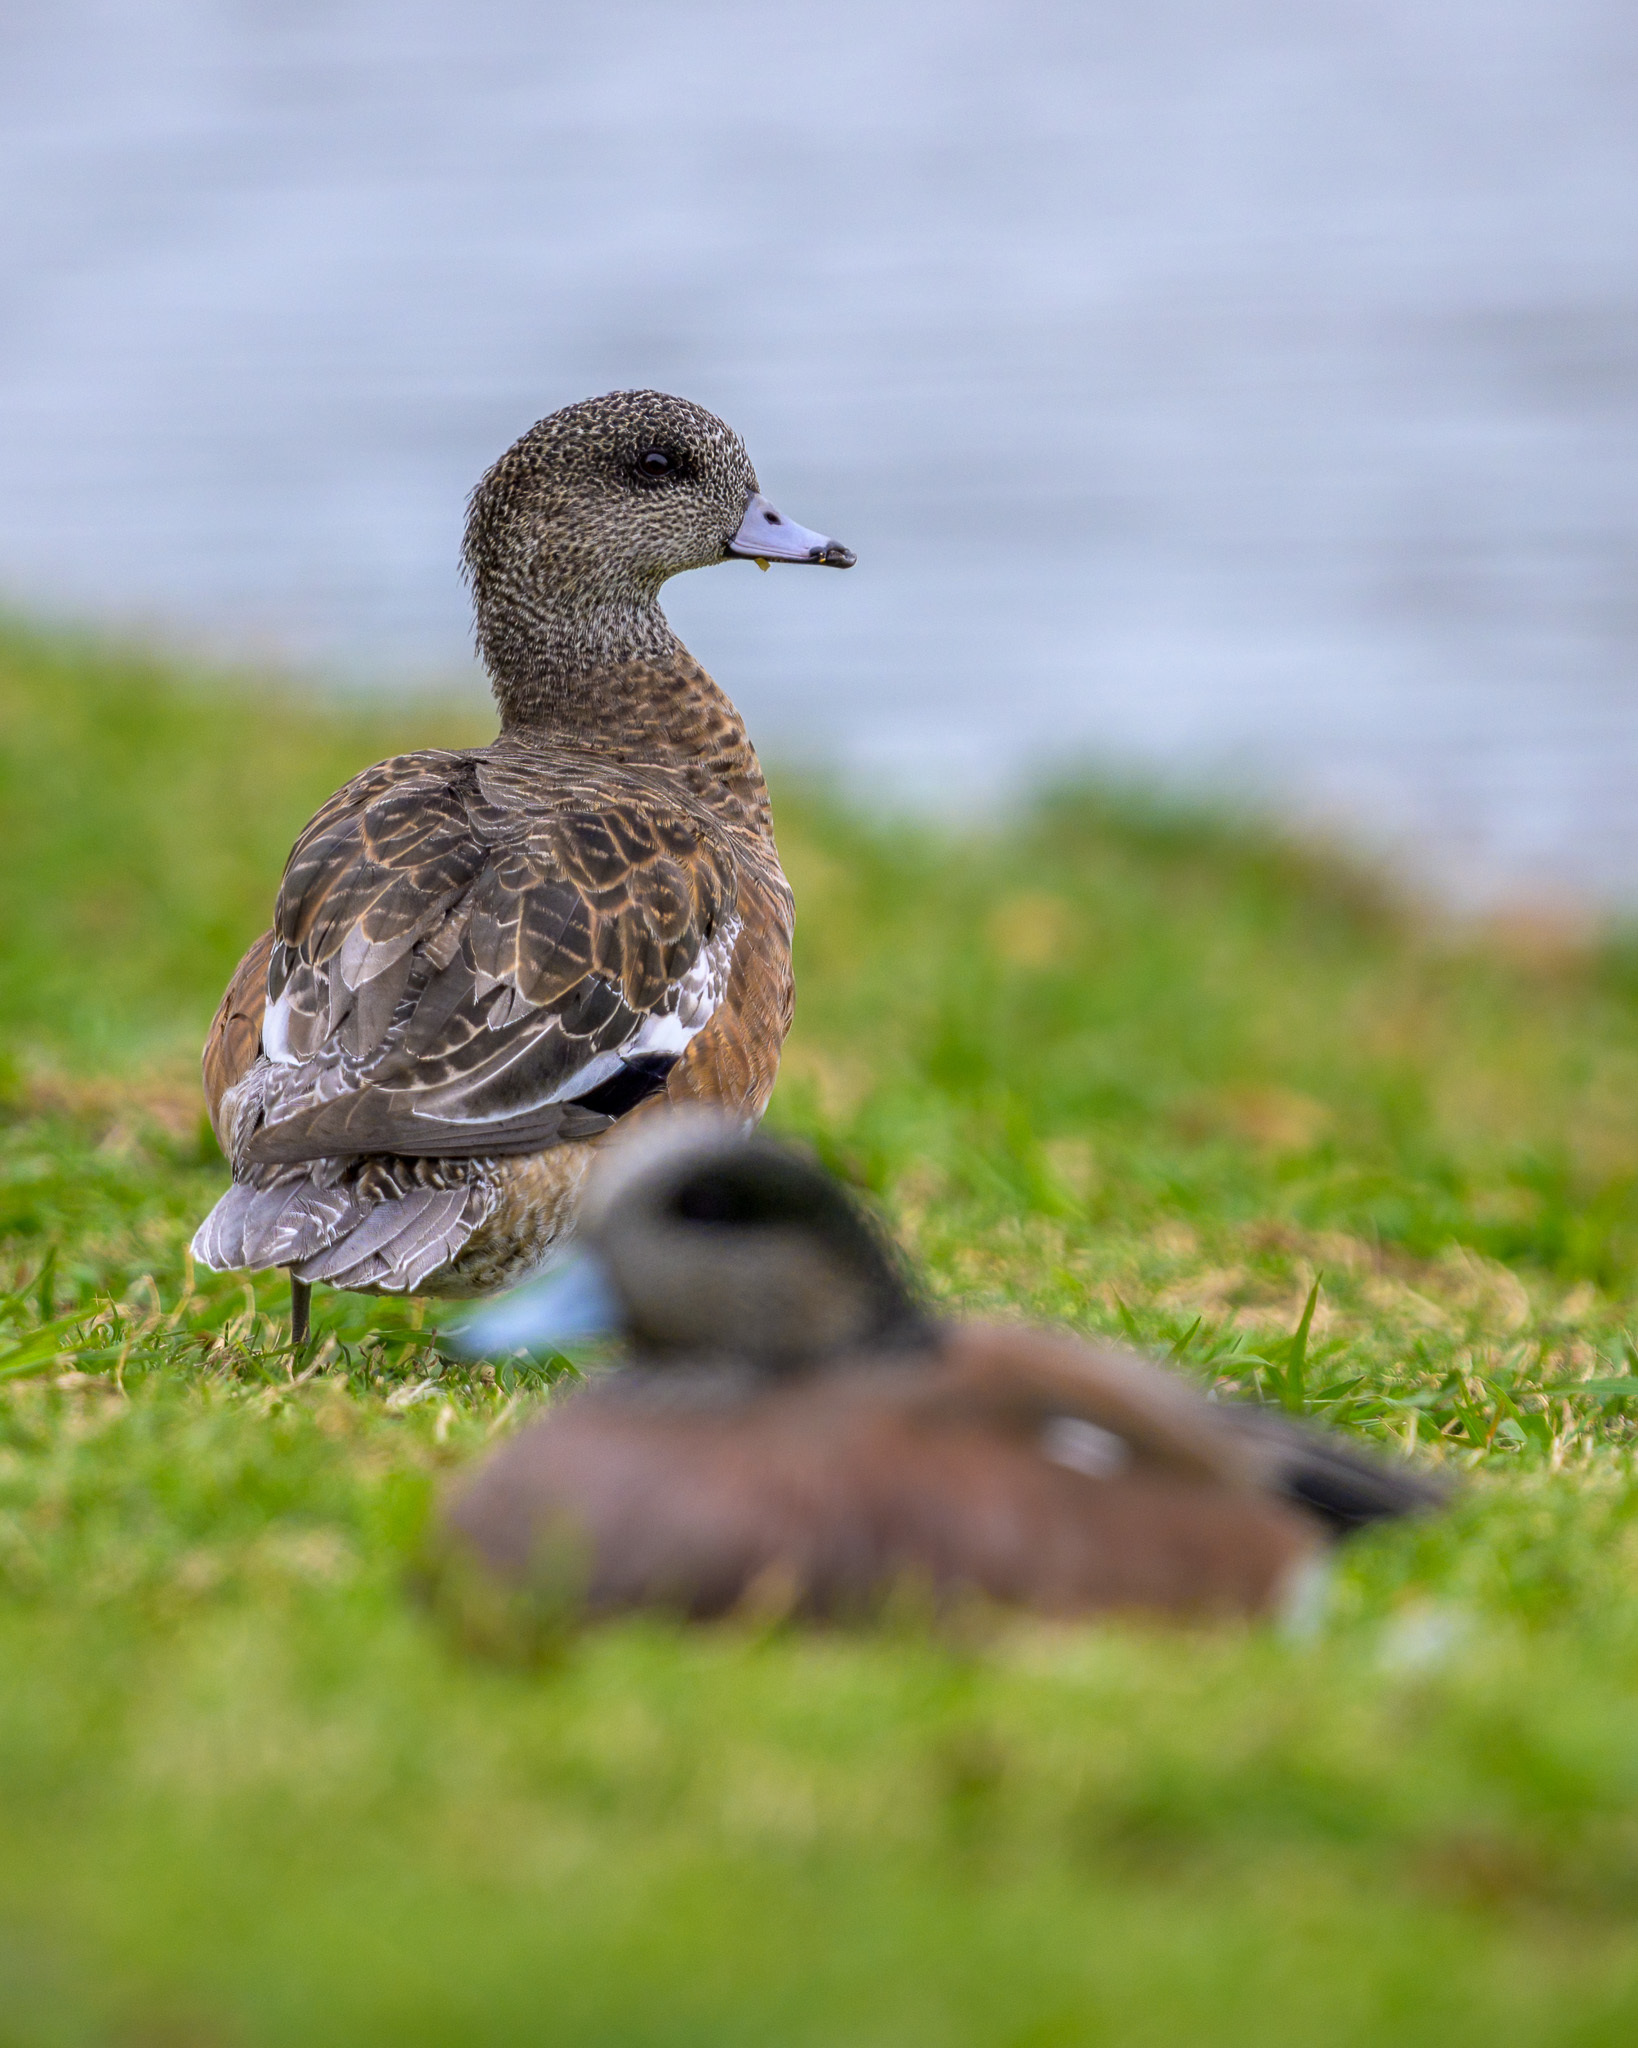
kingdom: Animalia
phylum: Chordata
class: Aves
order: Anseriformes
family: Anatidae
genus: Mareca
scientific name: Mareca americana
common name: American wigeon
